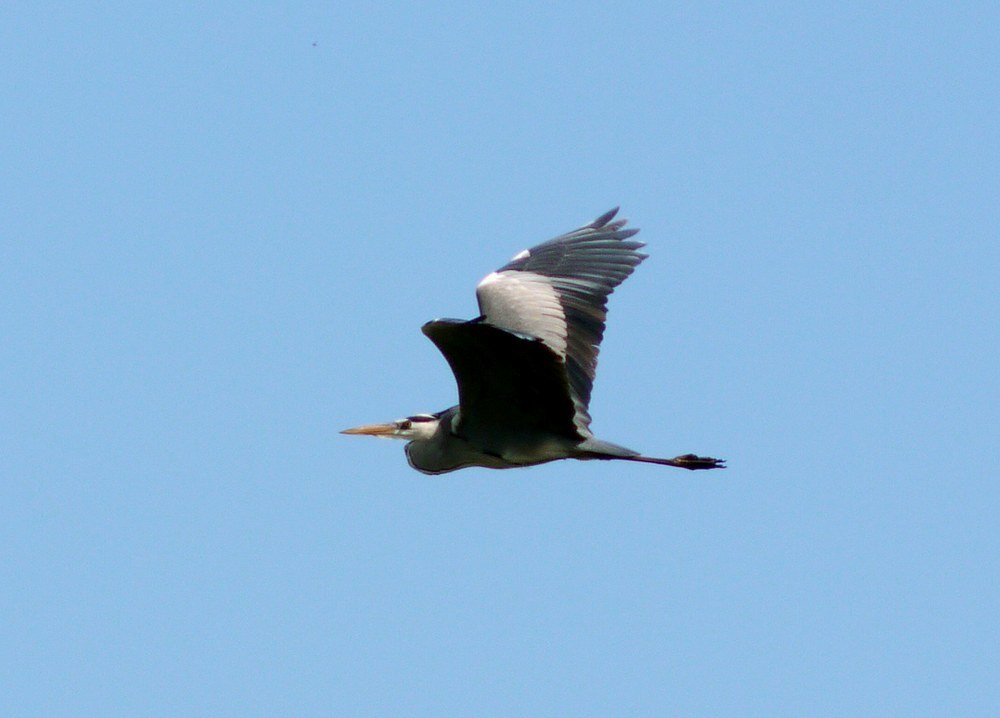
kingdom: Animalia
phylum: Chordata
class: Aves
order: Pelecaniformes
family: Ardeidae
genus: Ardea
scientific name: Ardea cinerea
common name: Grey heron
